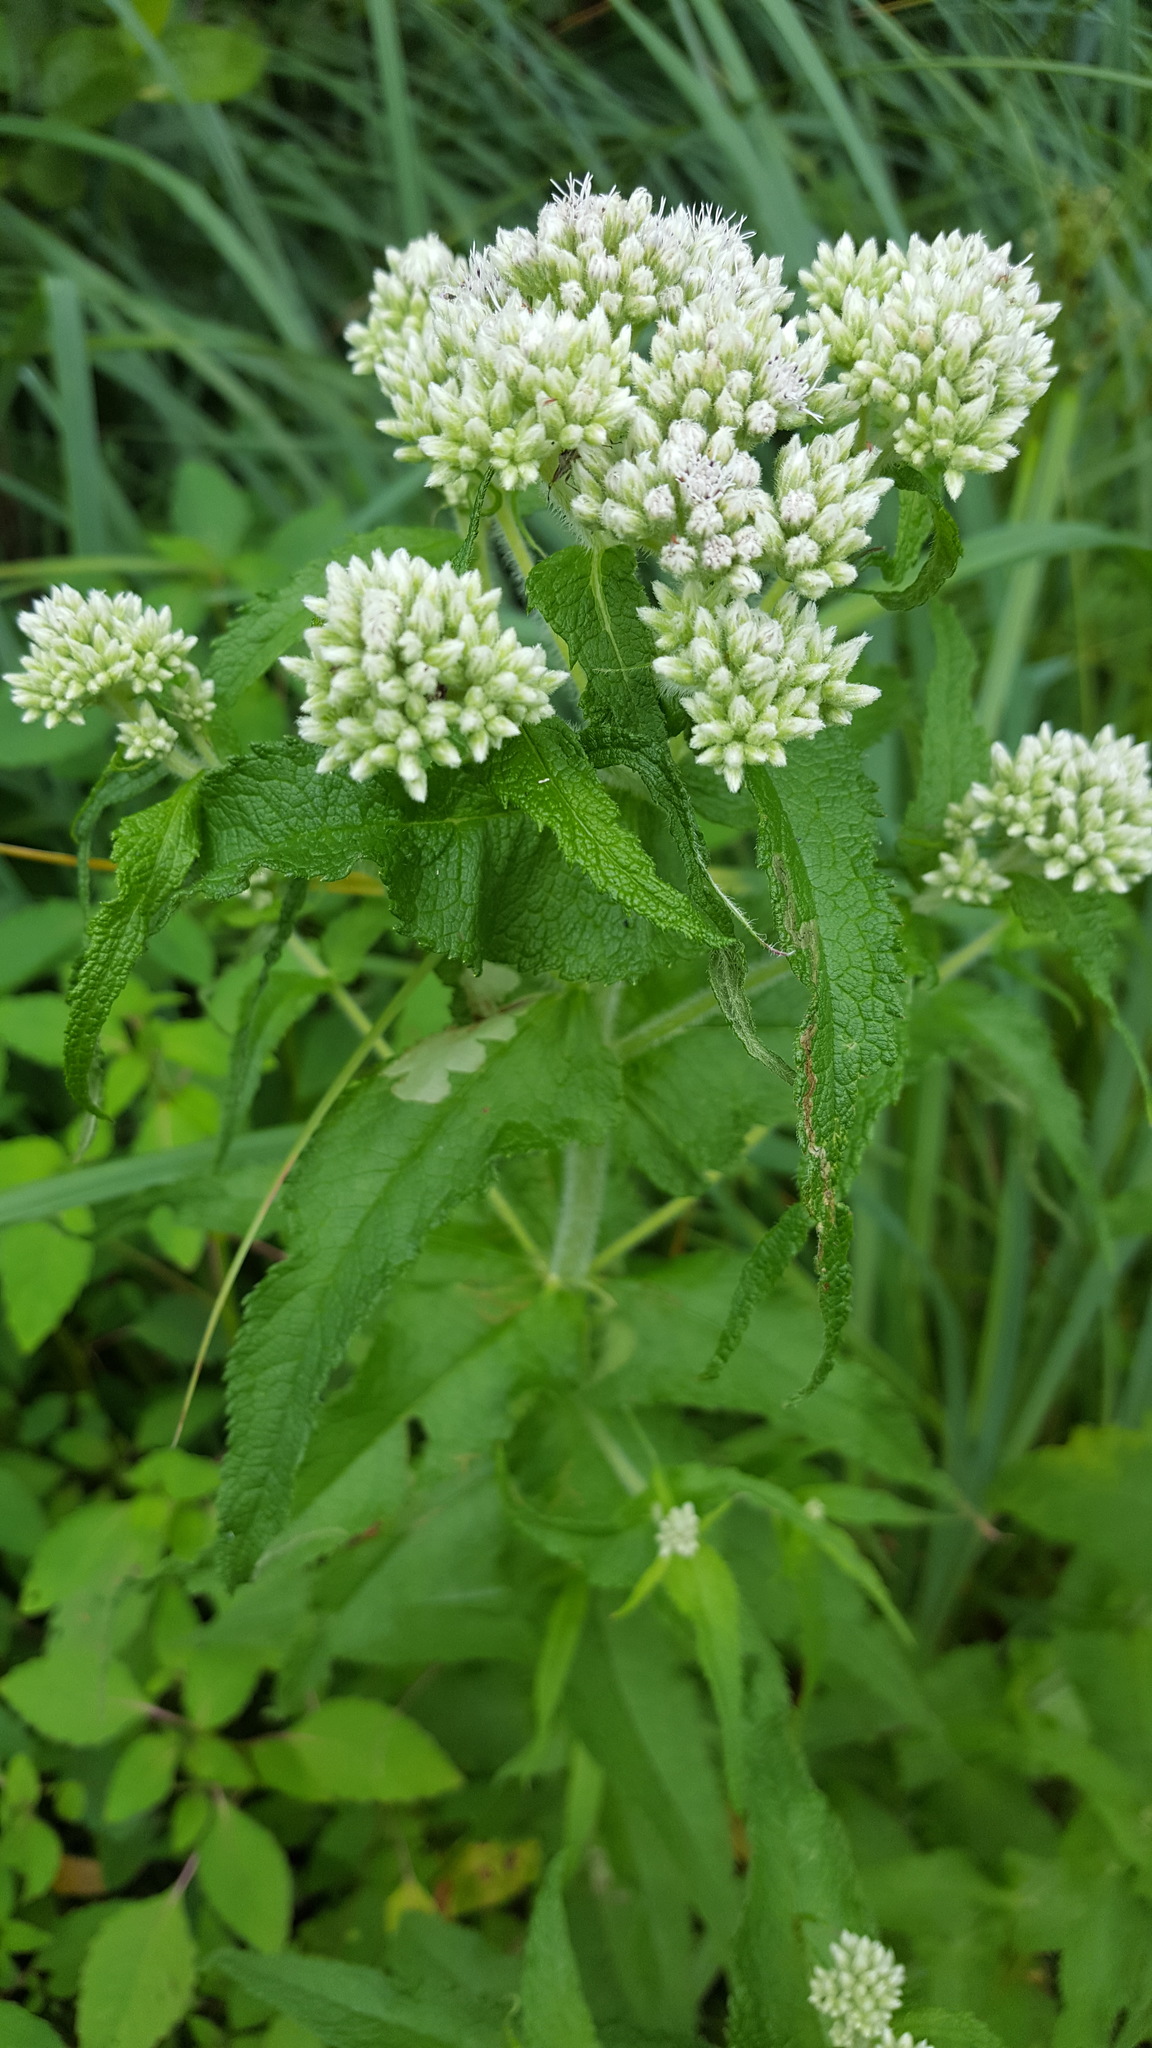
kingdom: Plantae
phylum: Tracheophyta
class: Magnoliopsida
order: Asterales
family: Asteraceae
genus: Eupatorium
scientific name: Eupatorium perfoliatum
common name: Boneset
